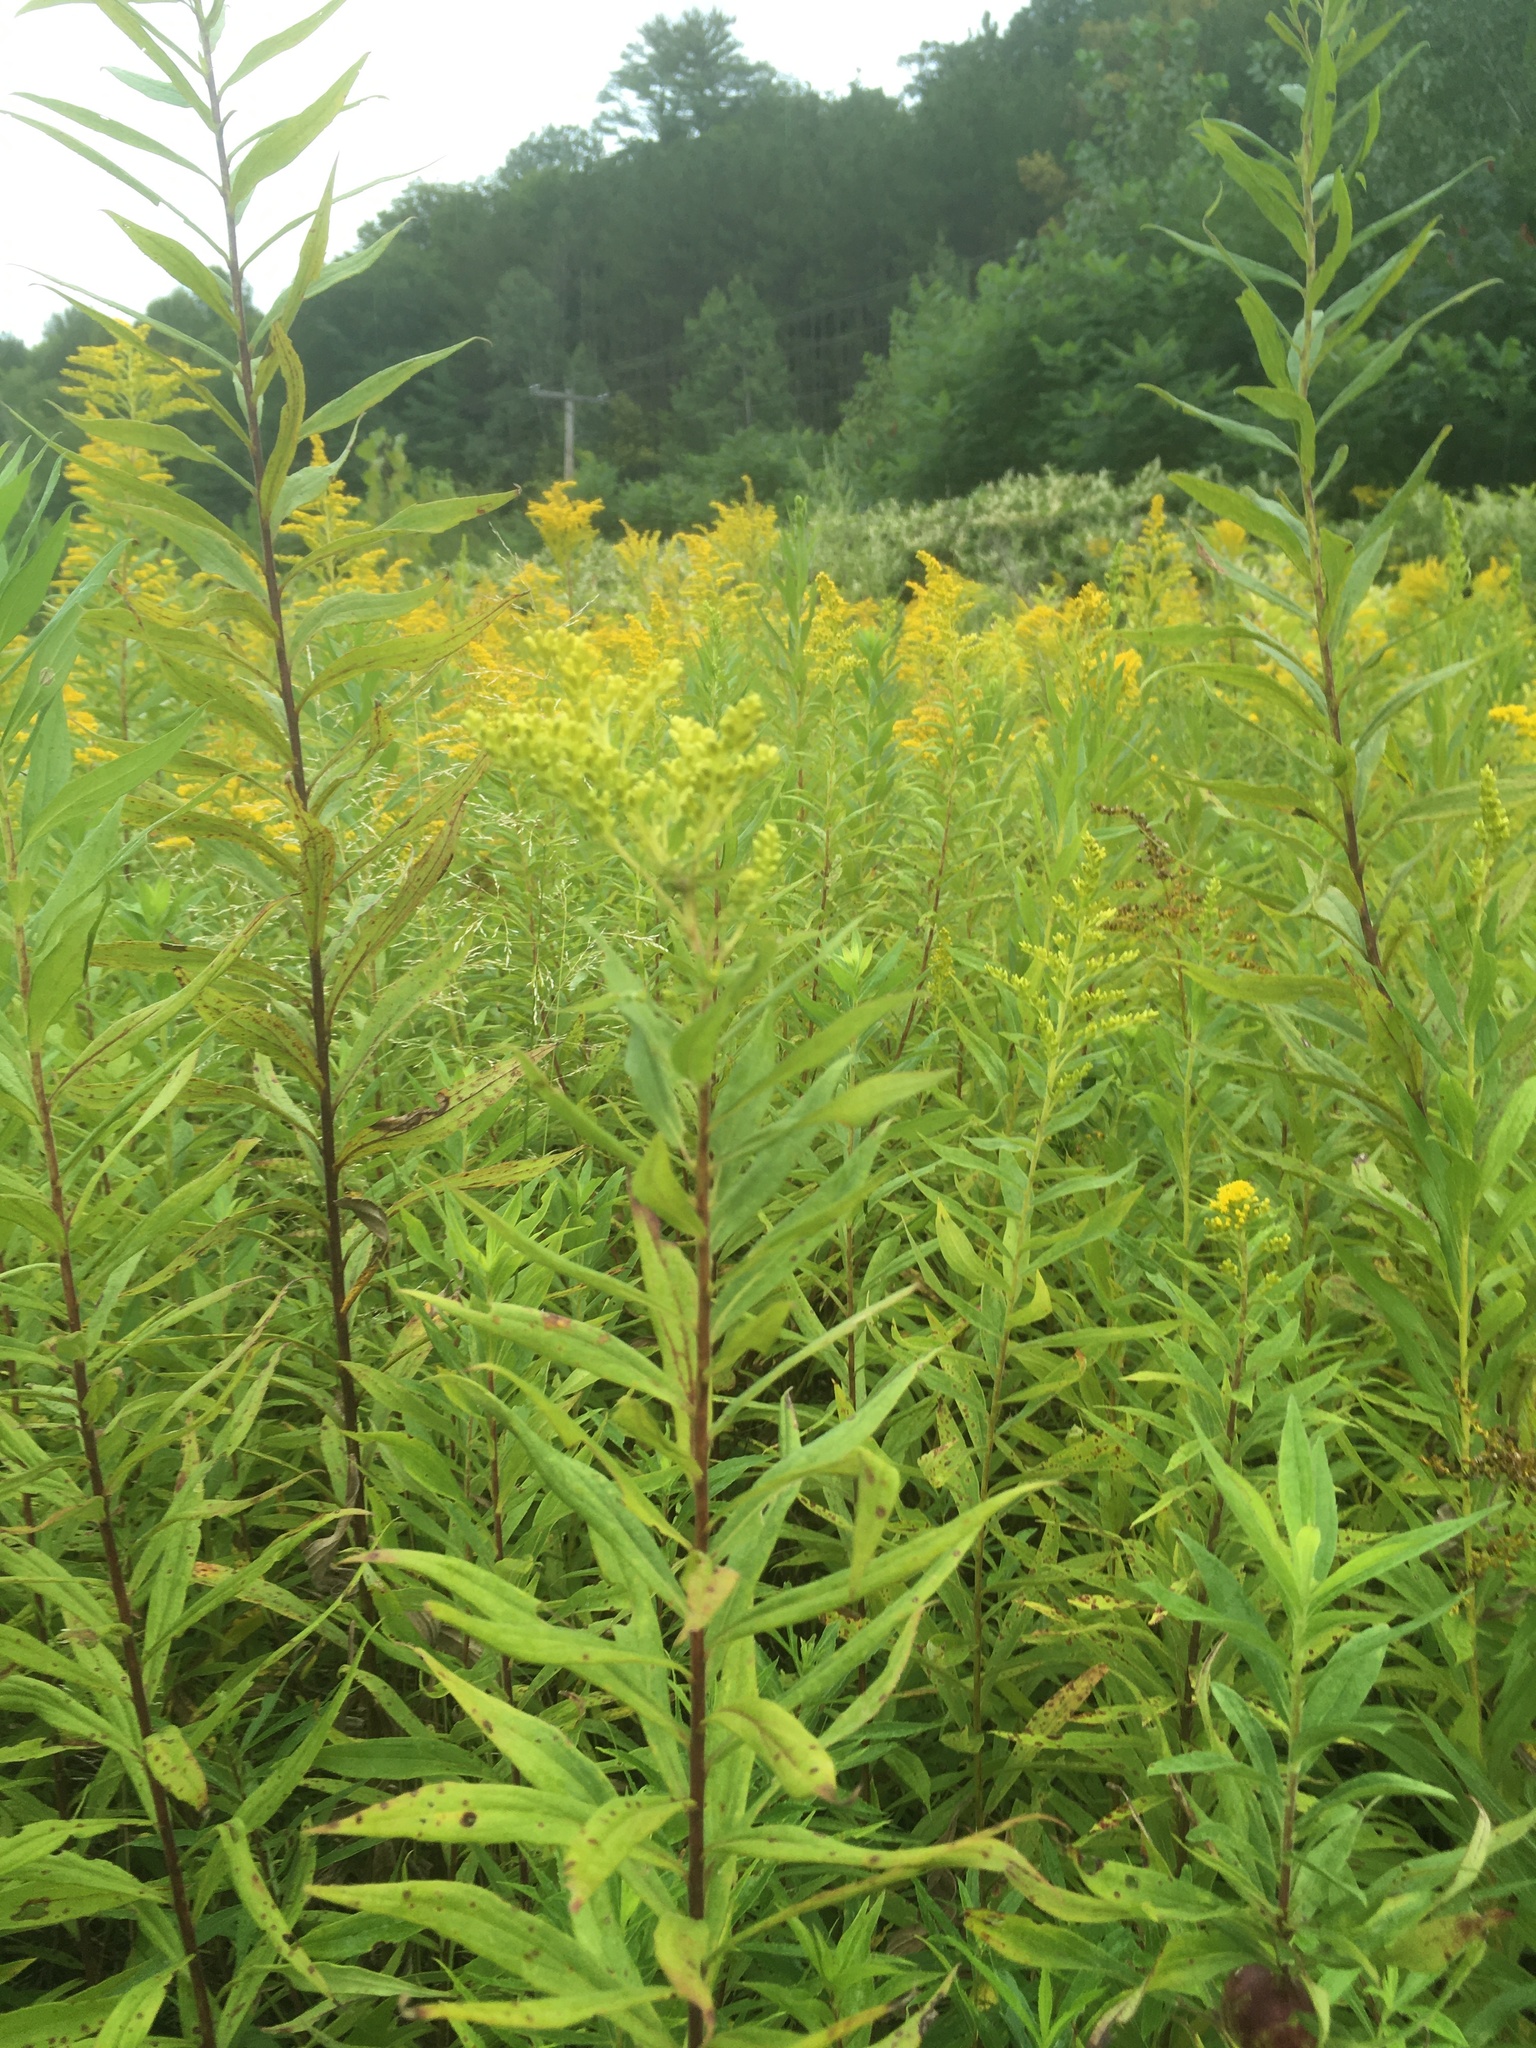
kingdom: Plantae
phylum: Tracheophyta
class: Magnoliopsida
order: Asterales
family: Asteraceae
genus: Solidago
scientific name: Solidago altissima
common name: Late goldenrod
